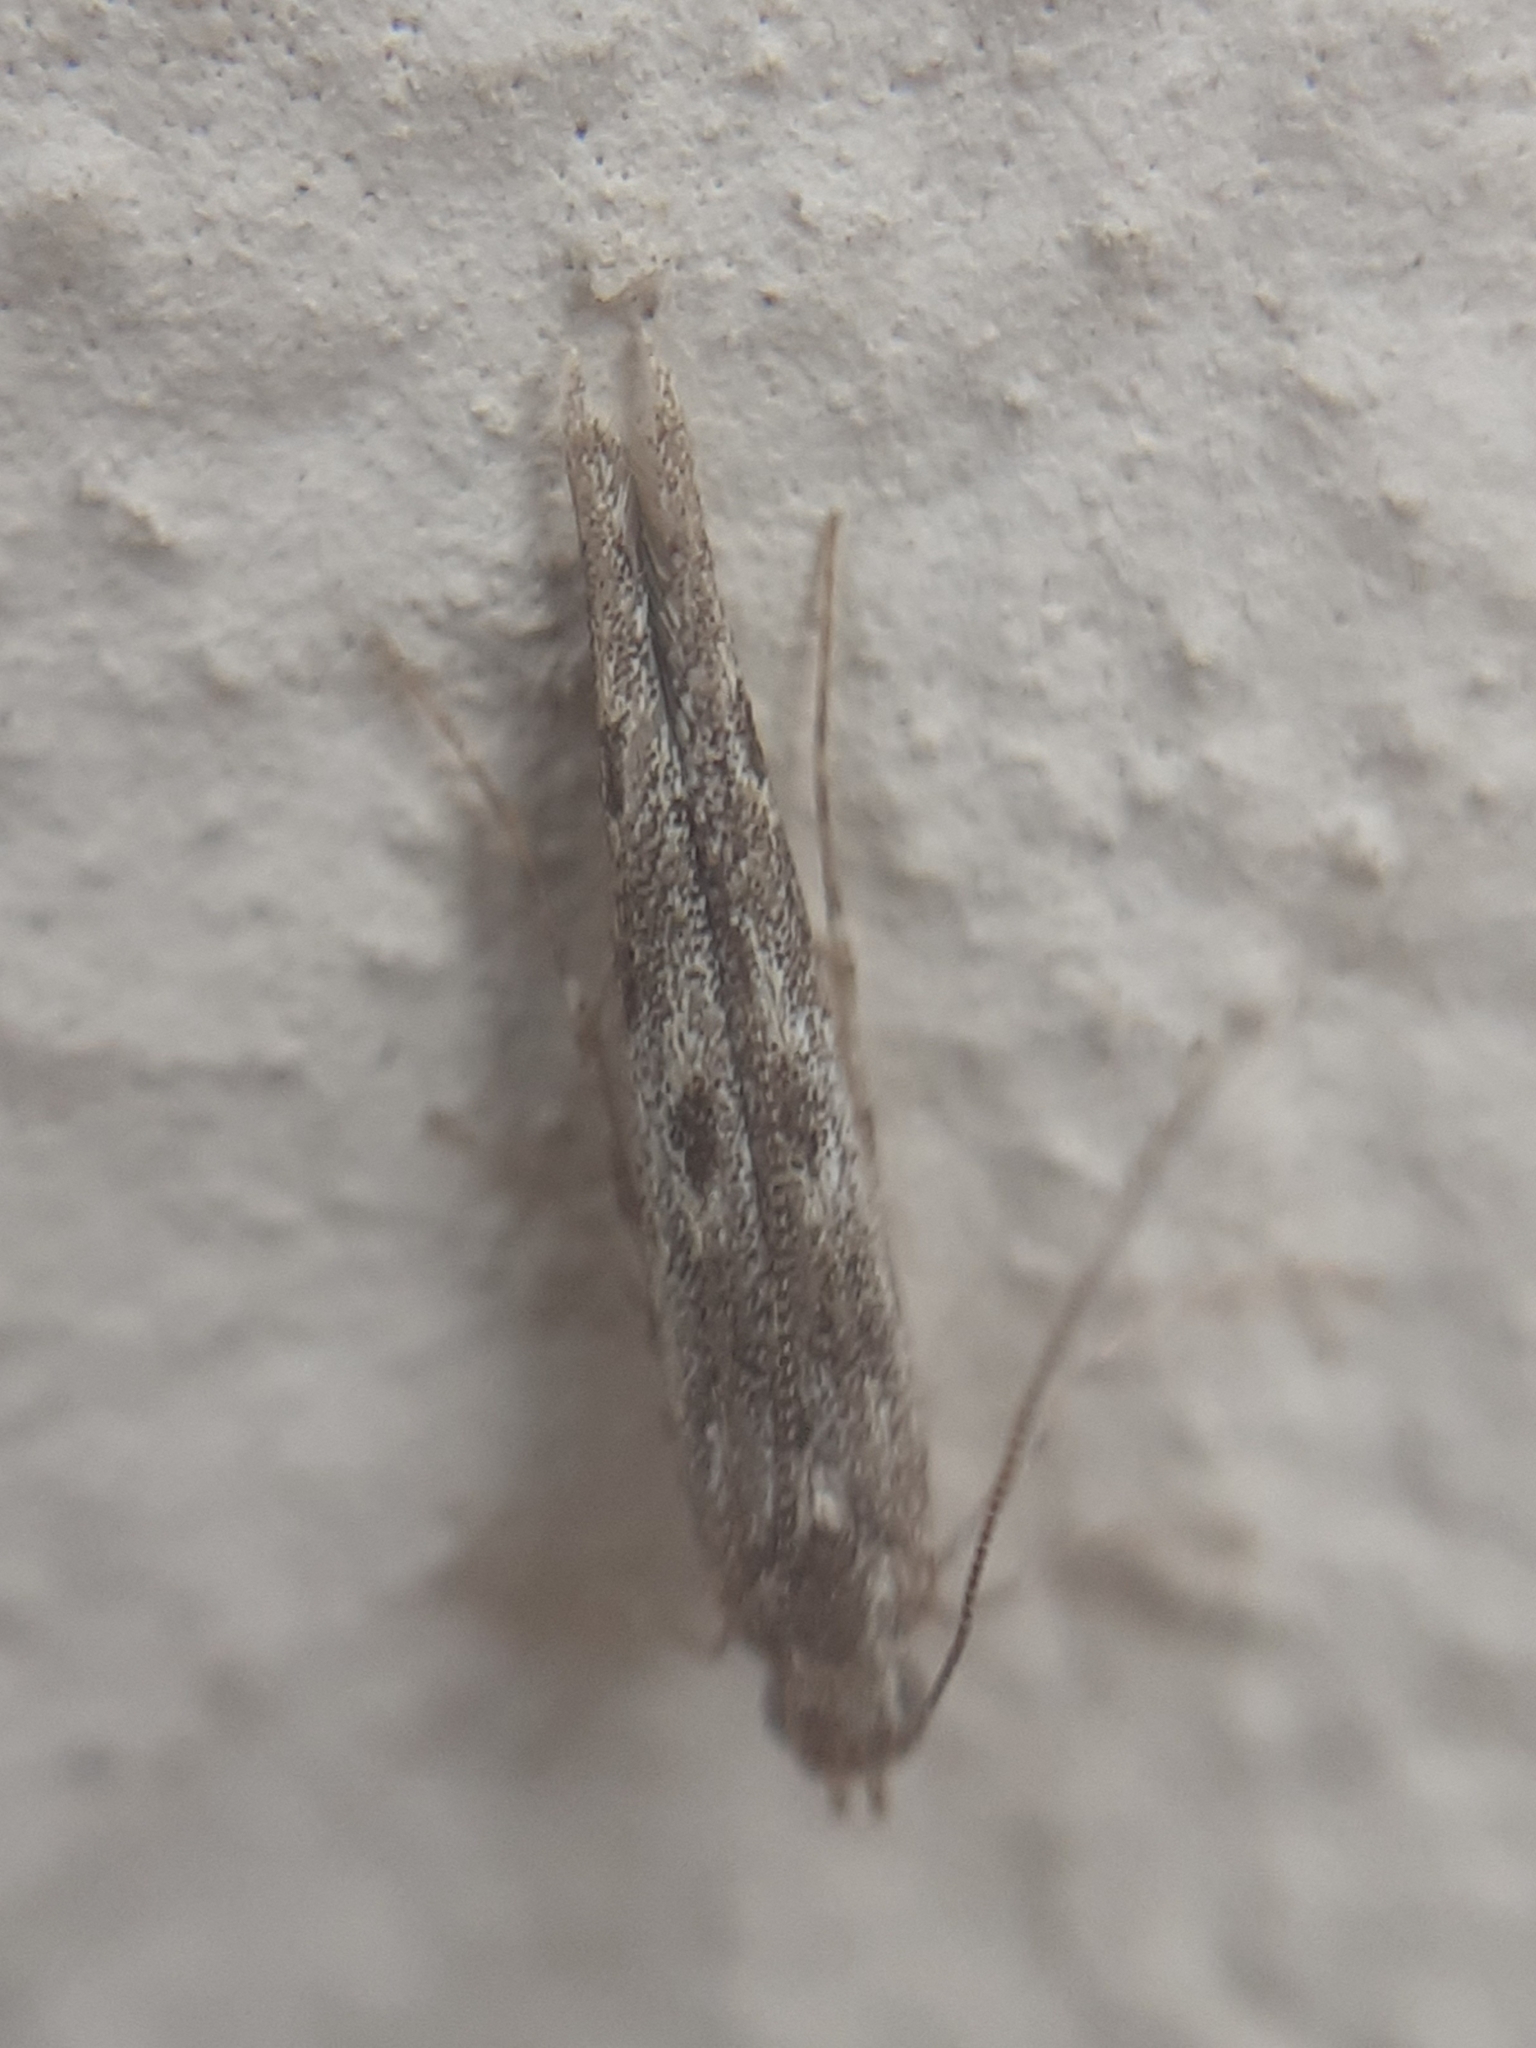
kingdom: Animalia
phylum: Arthropoda
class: Insecta
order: Lepidoptera
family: Batrachedridae
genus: Batrachedra
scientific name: Batrachedra praeangusta
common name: Poplar cosmet
